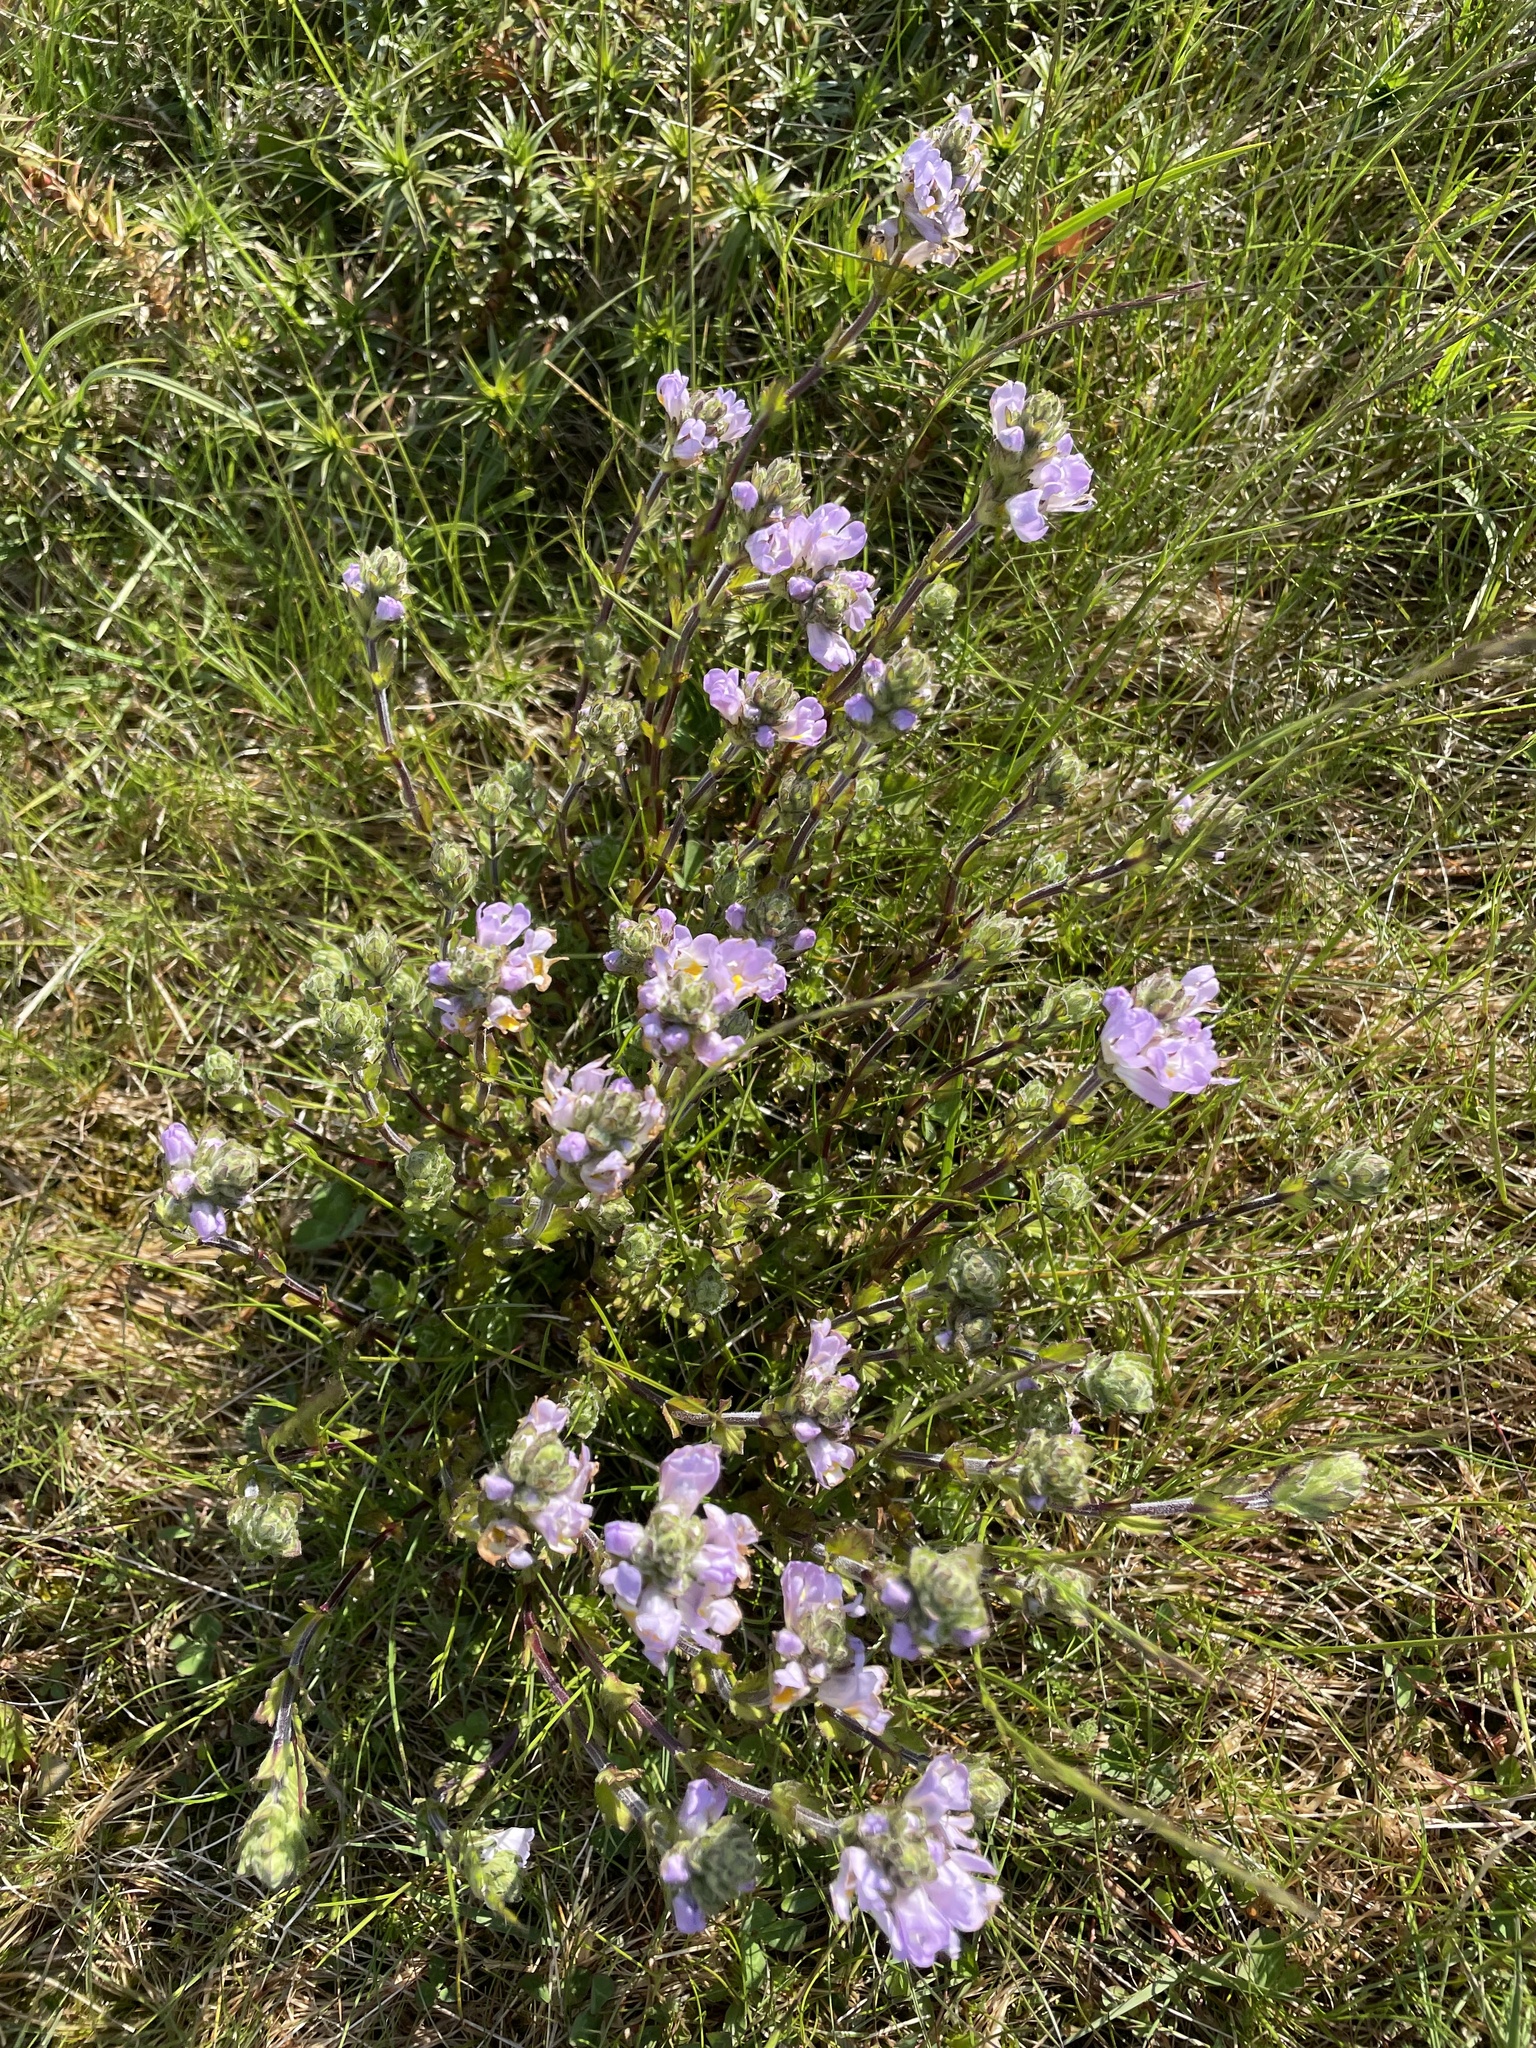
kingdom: Plantae
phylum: Tracheophyta
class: Magnoliopsida
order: Lamiales
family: Orobanchaceae
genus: Euphrasia
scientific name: Euphrasia collina
